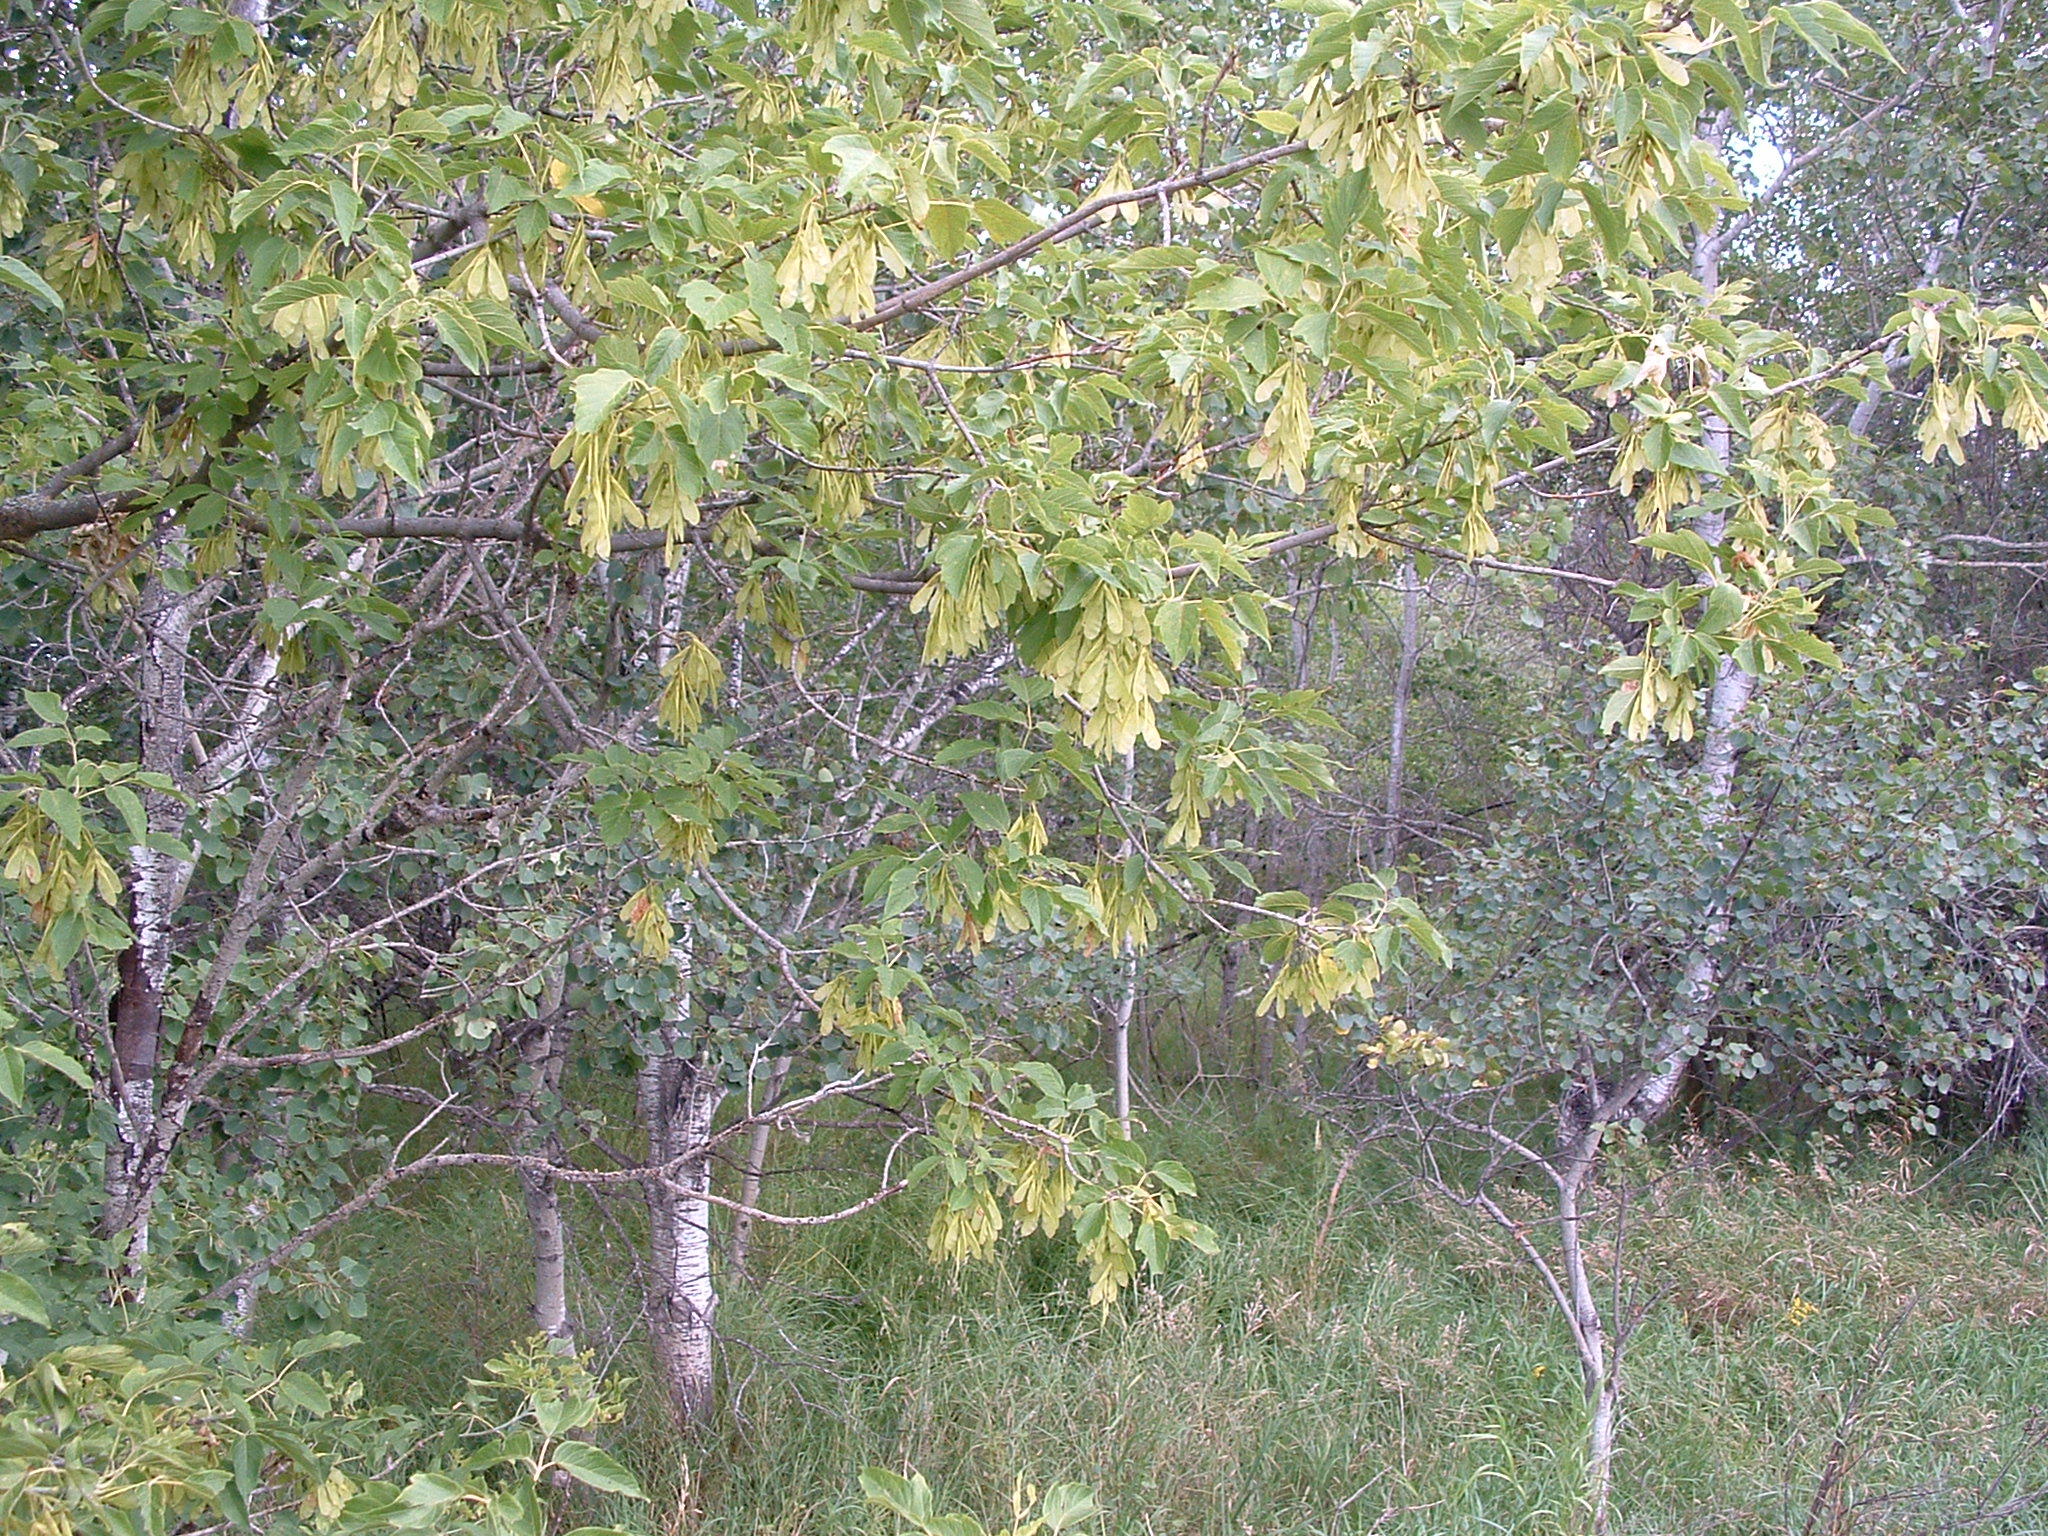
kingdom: Plantae
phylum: Tracheophyta
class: Magnoliopsida
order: Sapindales
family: Sapindaceae
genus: Acer
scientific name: Acer negundo
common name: Ashleaf maple
